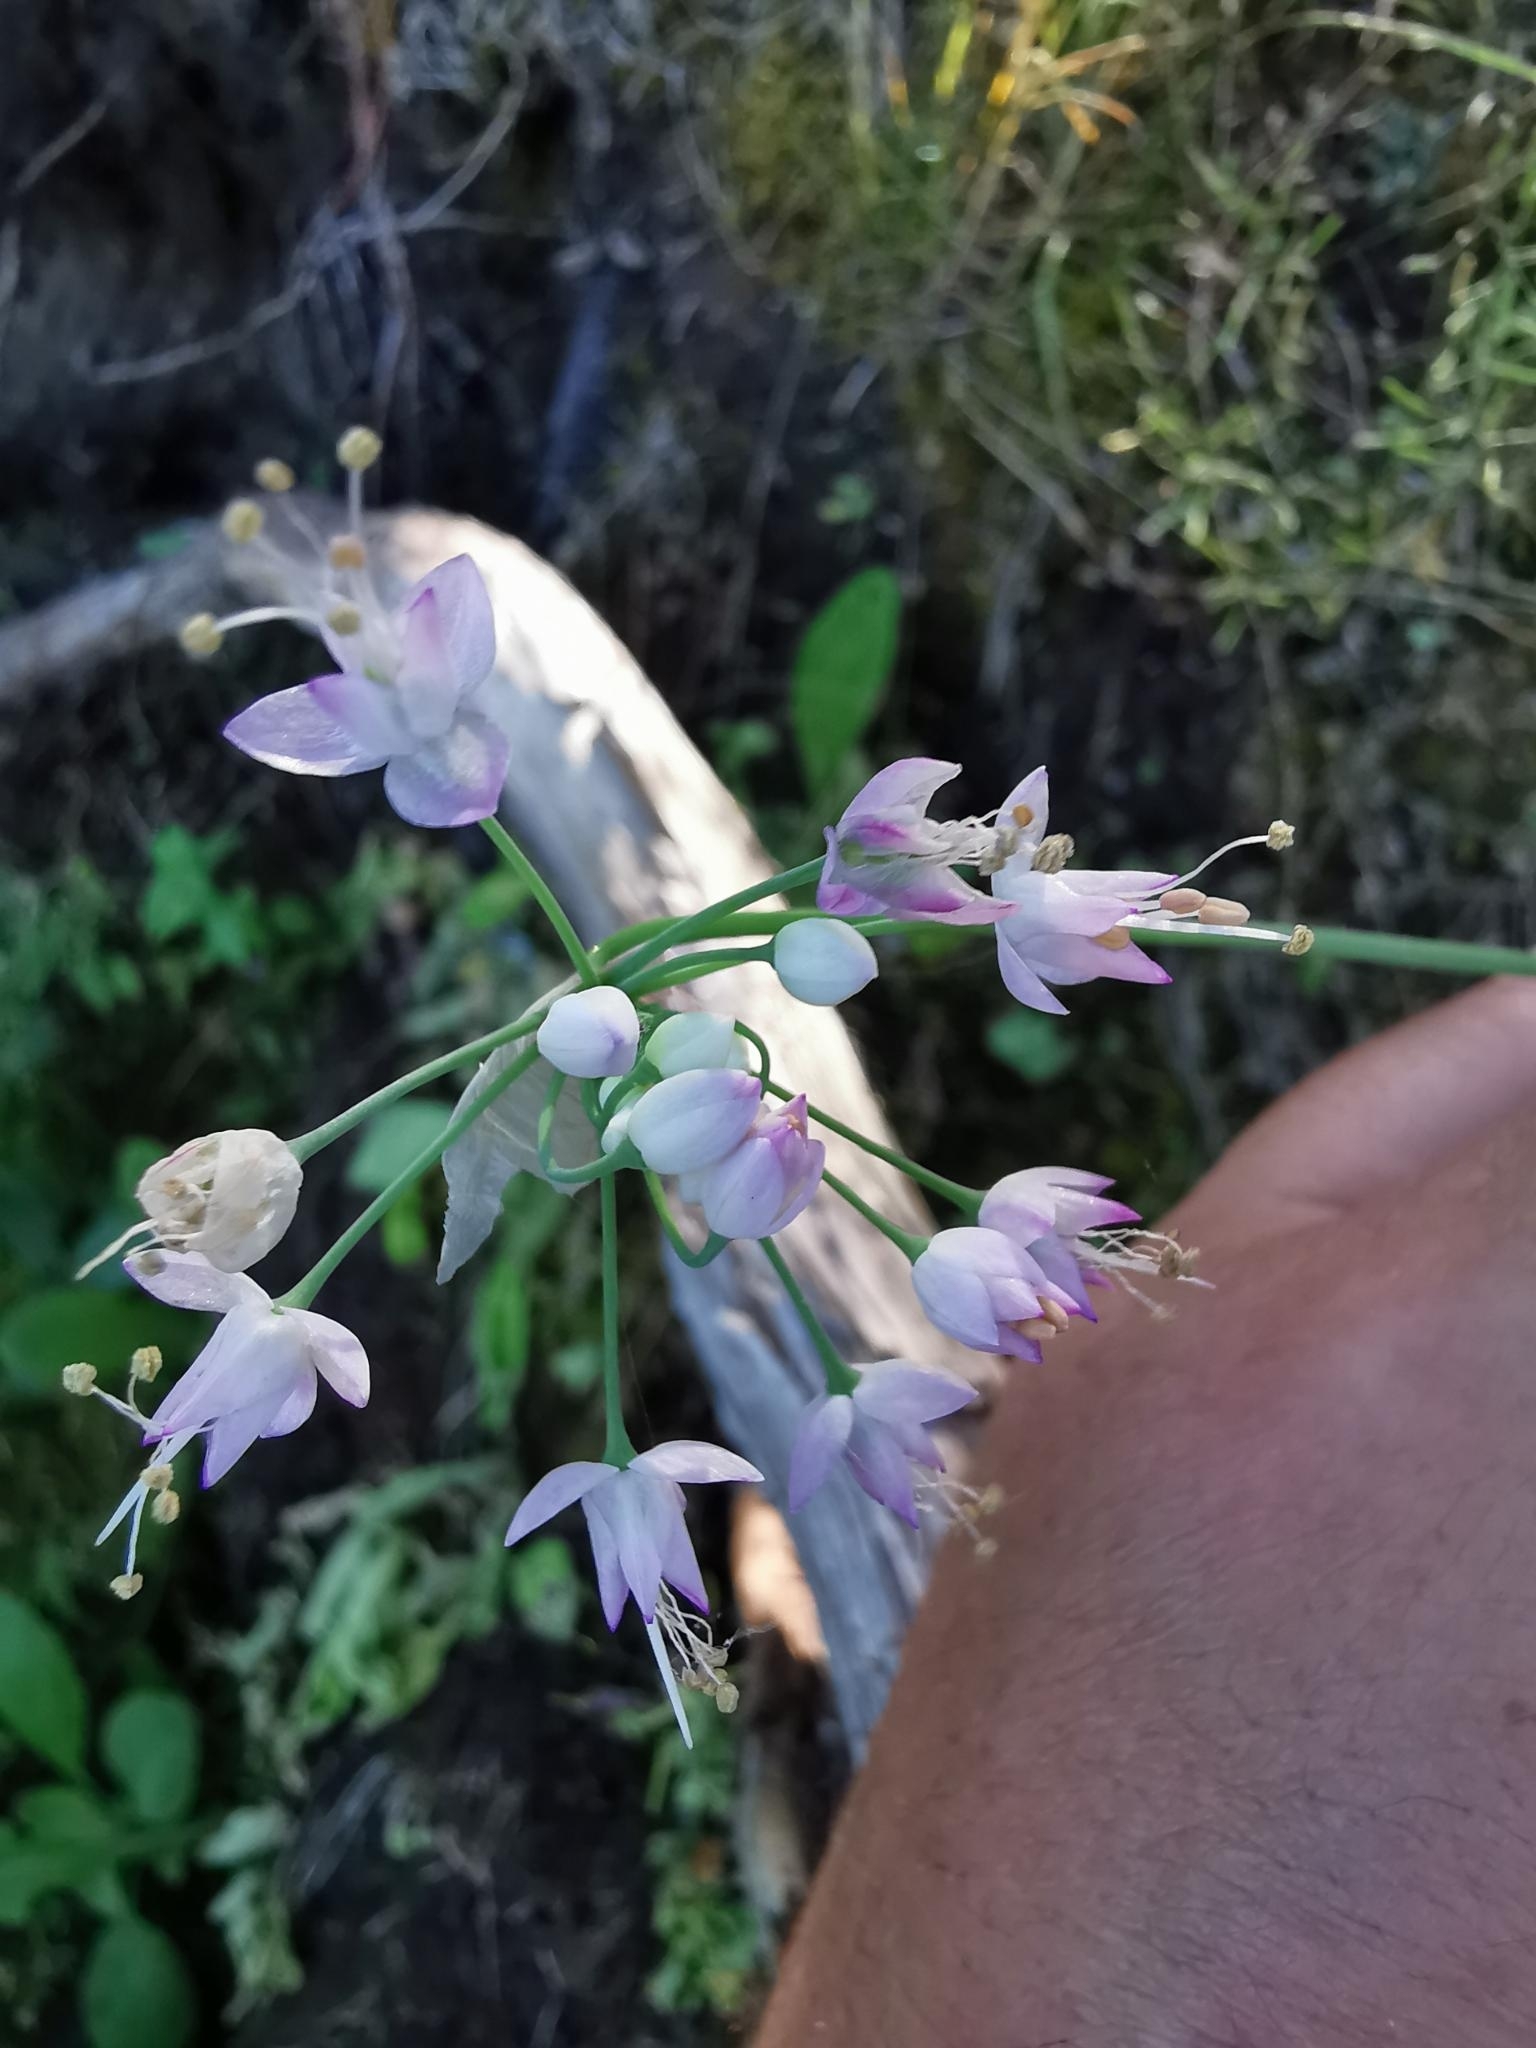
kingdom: Plantae
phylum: Tracheophyta
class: Liliopsida
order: Asparagales
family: Amaryllidaceae
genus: Allium
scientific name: Allium cernuum
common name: Nodding onion
